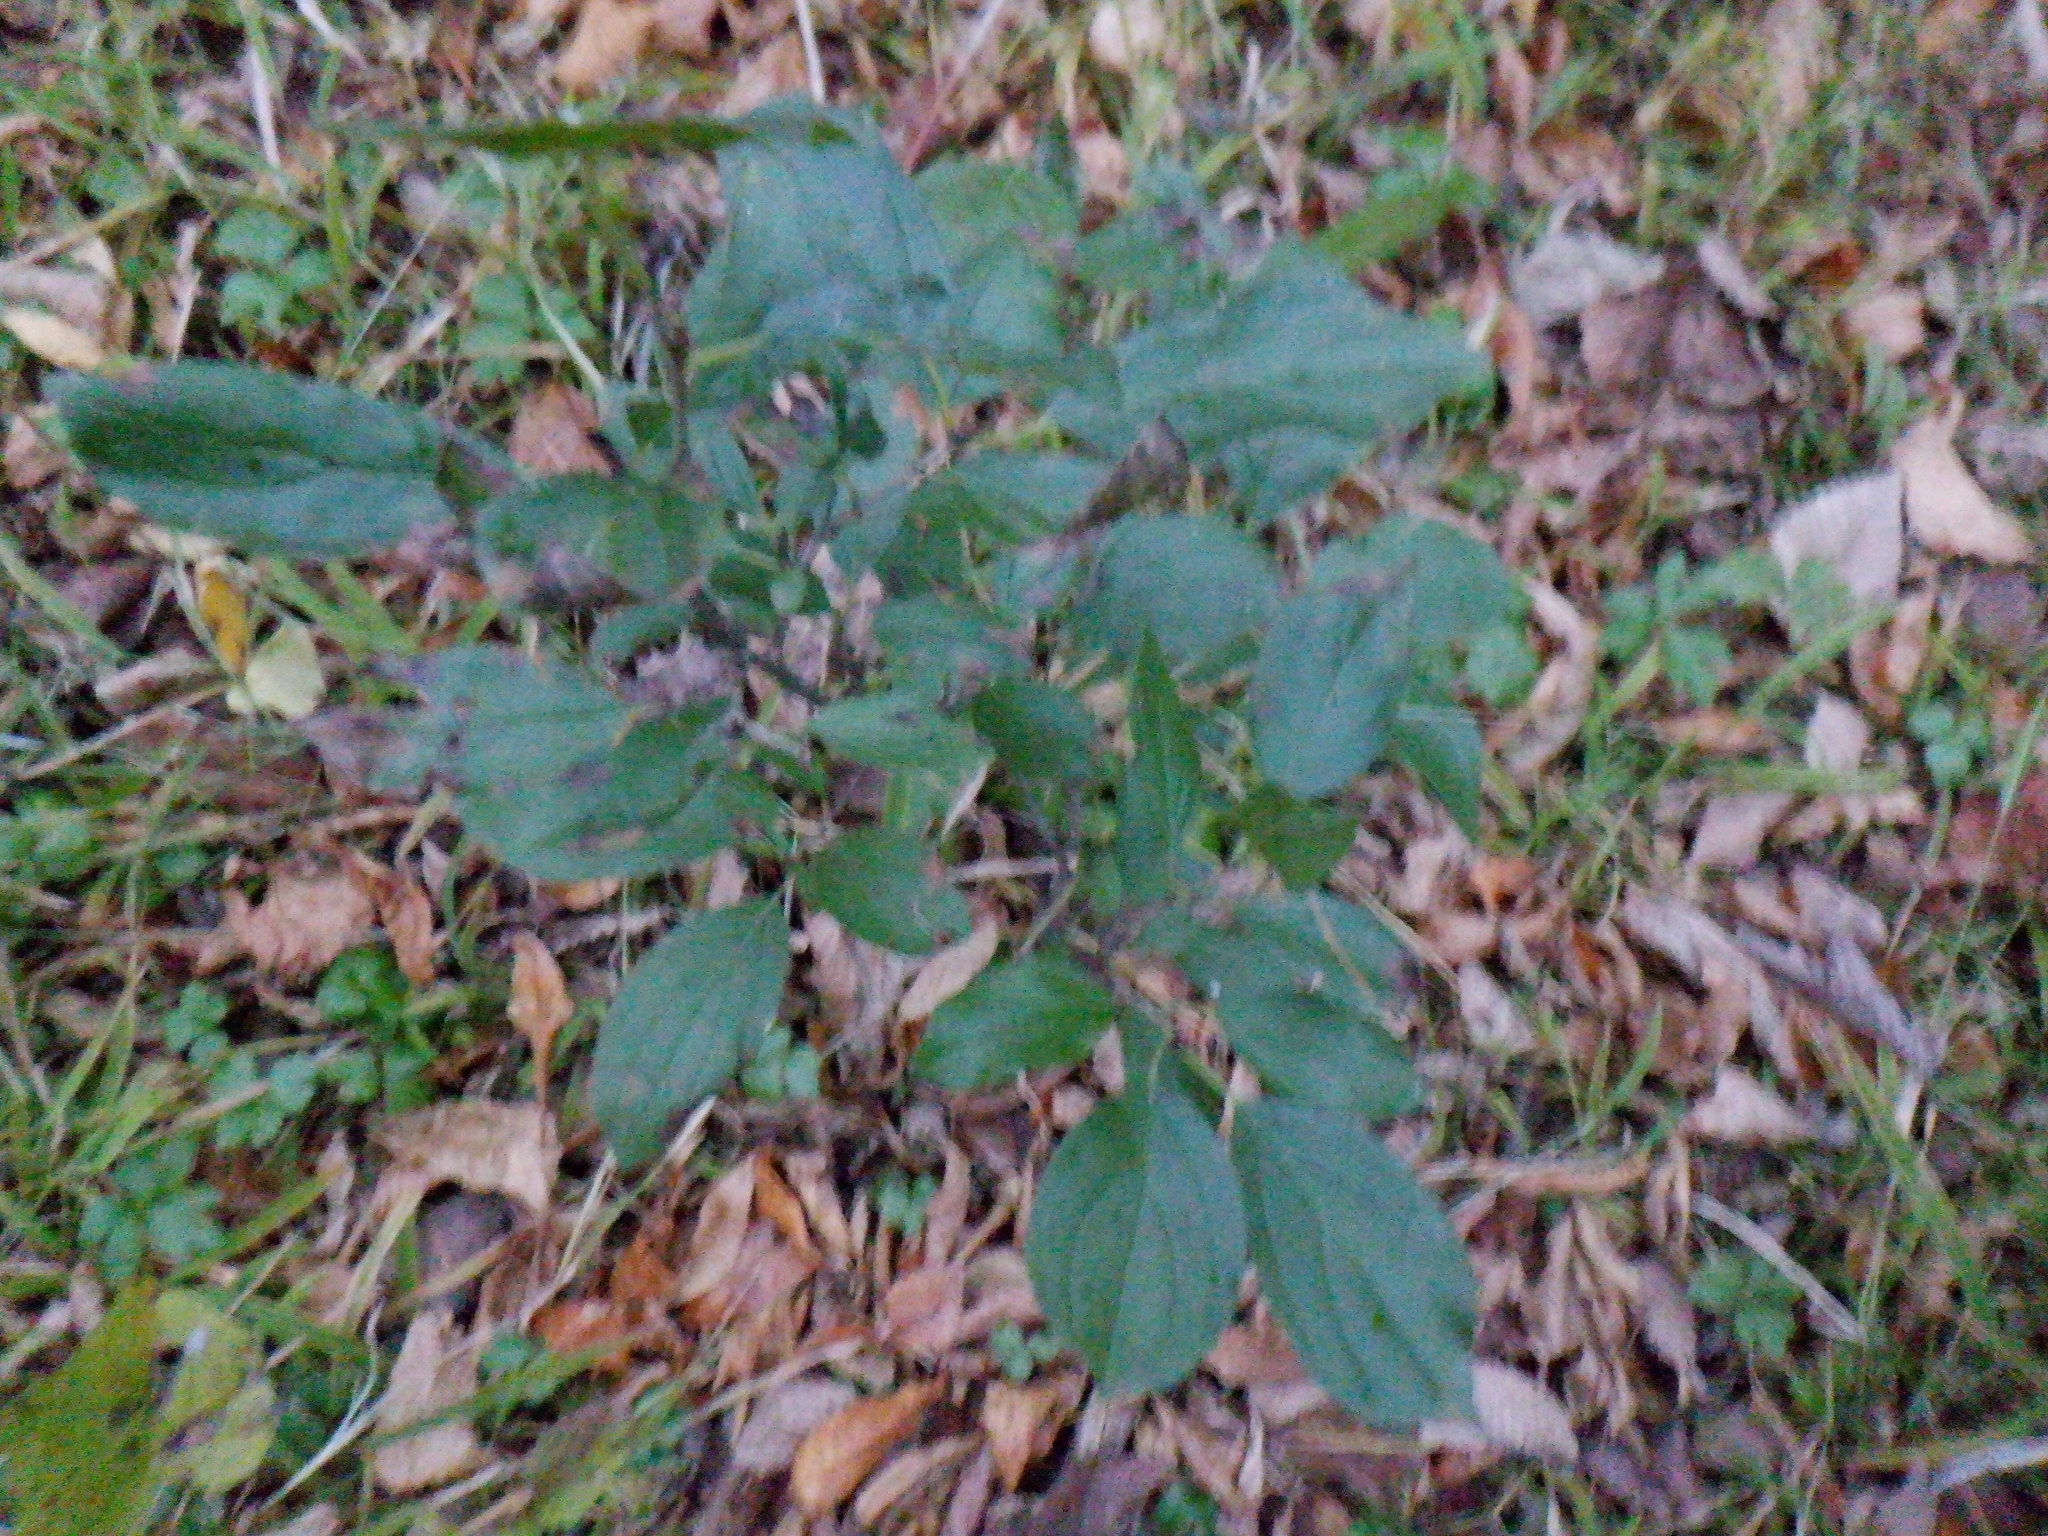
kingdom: Plantae
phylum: Tracheophyta
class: Magnoliopsida
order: Rosales
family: Rhamnaceae
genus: Rhamnus
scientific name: Rhamnus cathartica
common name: Common buckthorn
